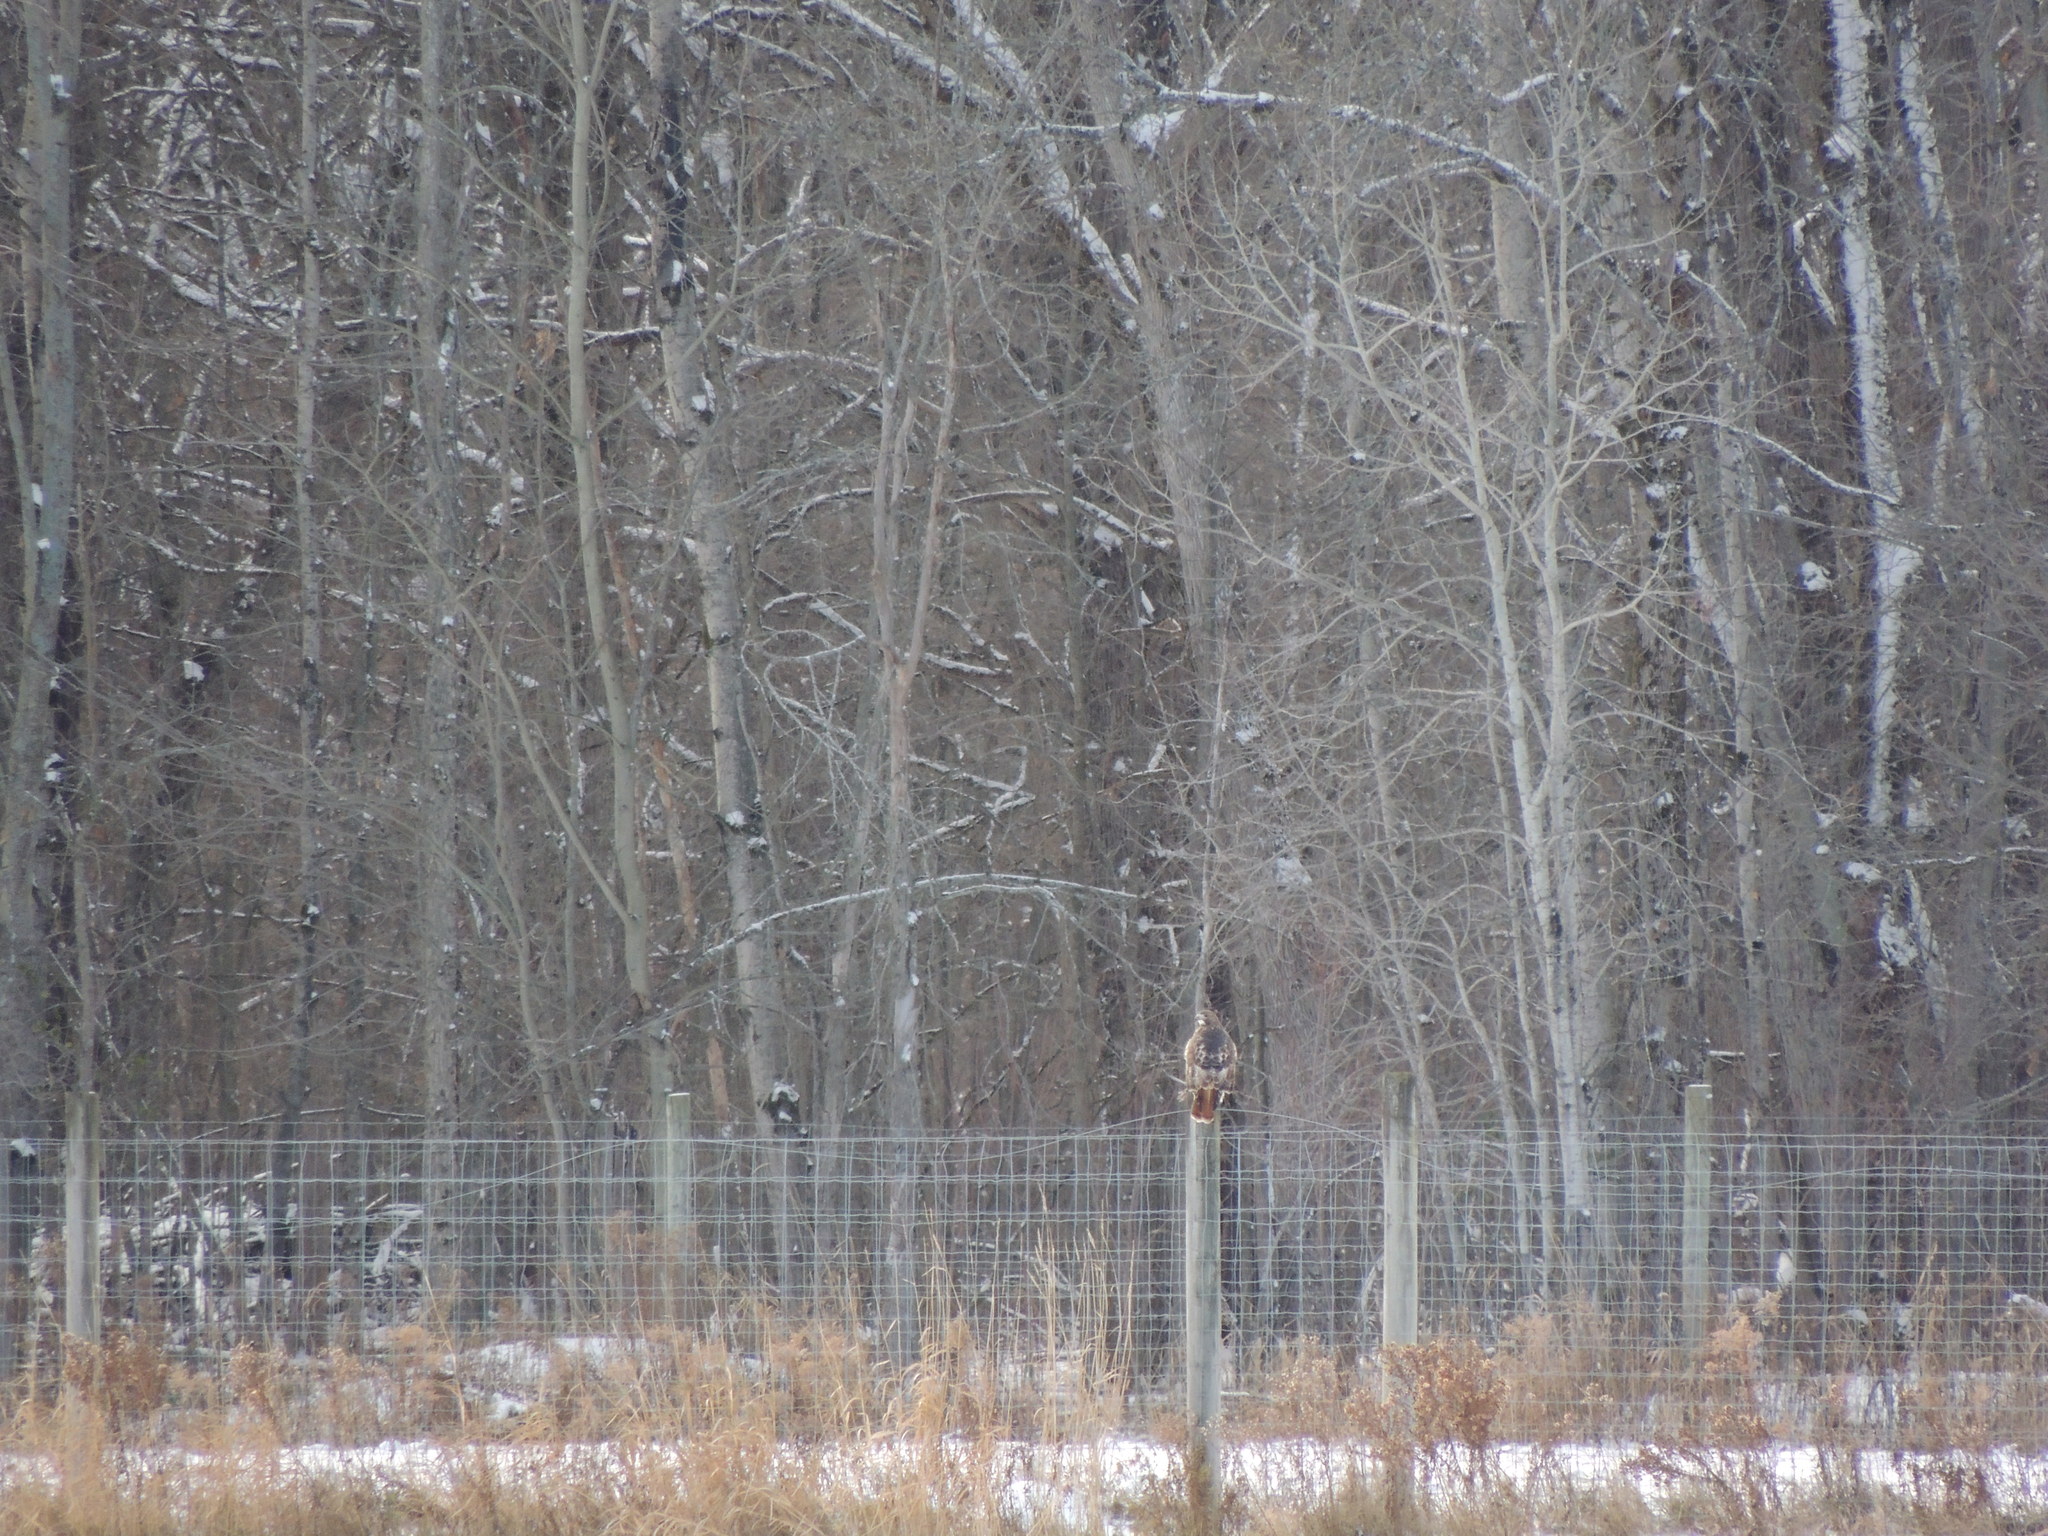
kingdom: Animalia
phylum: Chordata
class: Aves
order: Accipitriformes
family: Accipitridae
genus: Buteo
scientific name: Buteo jamaicensis
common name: Red-tailed hawk
